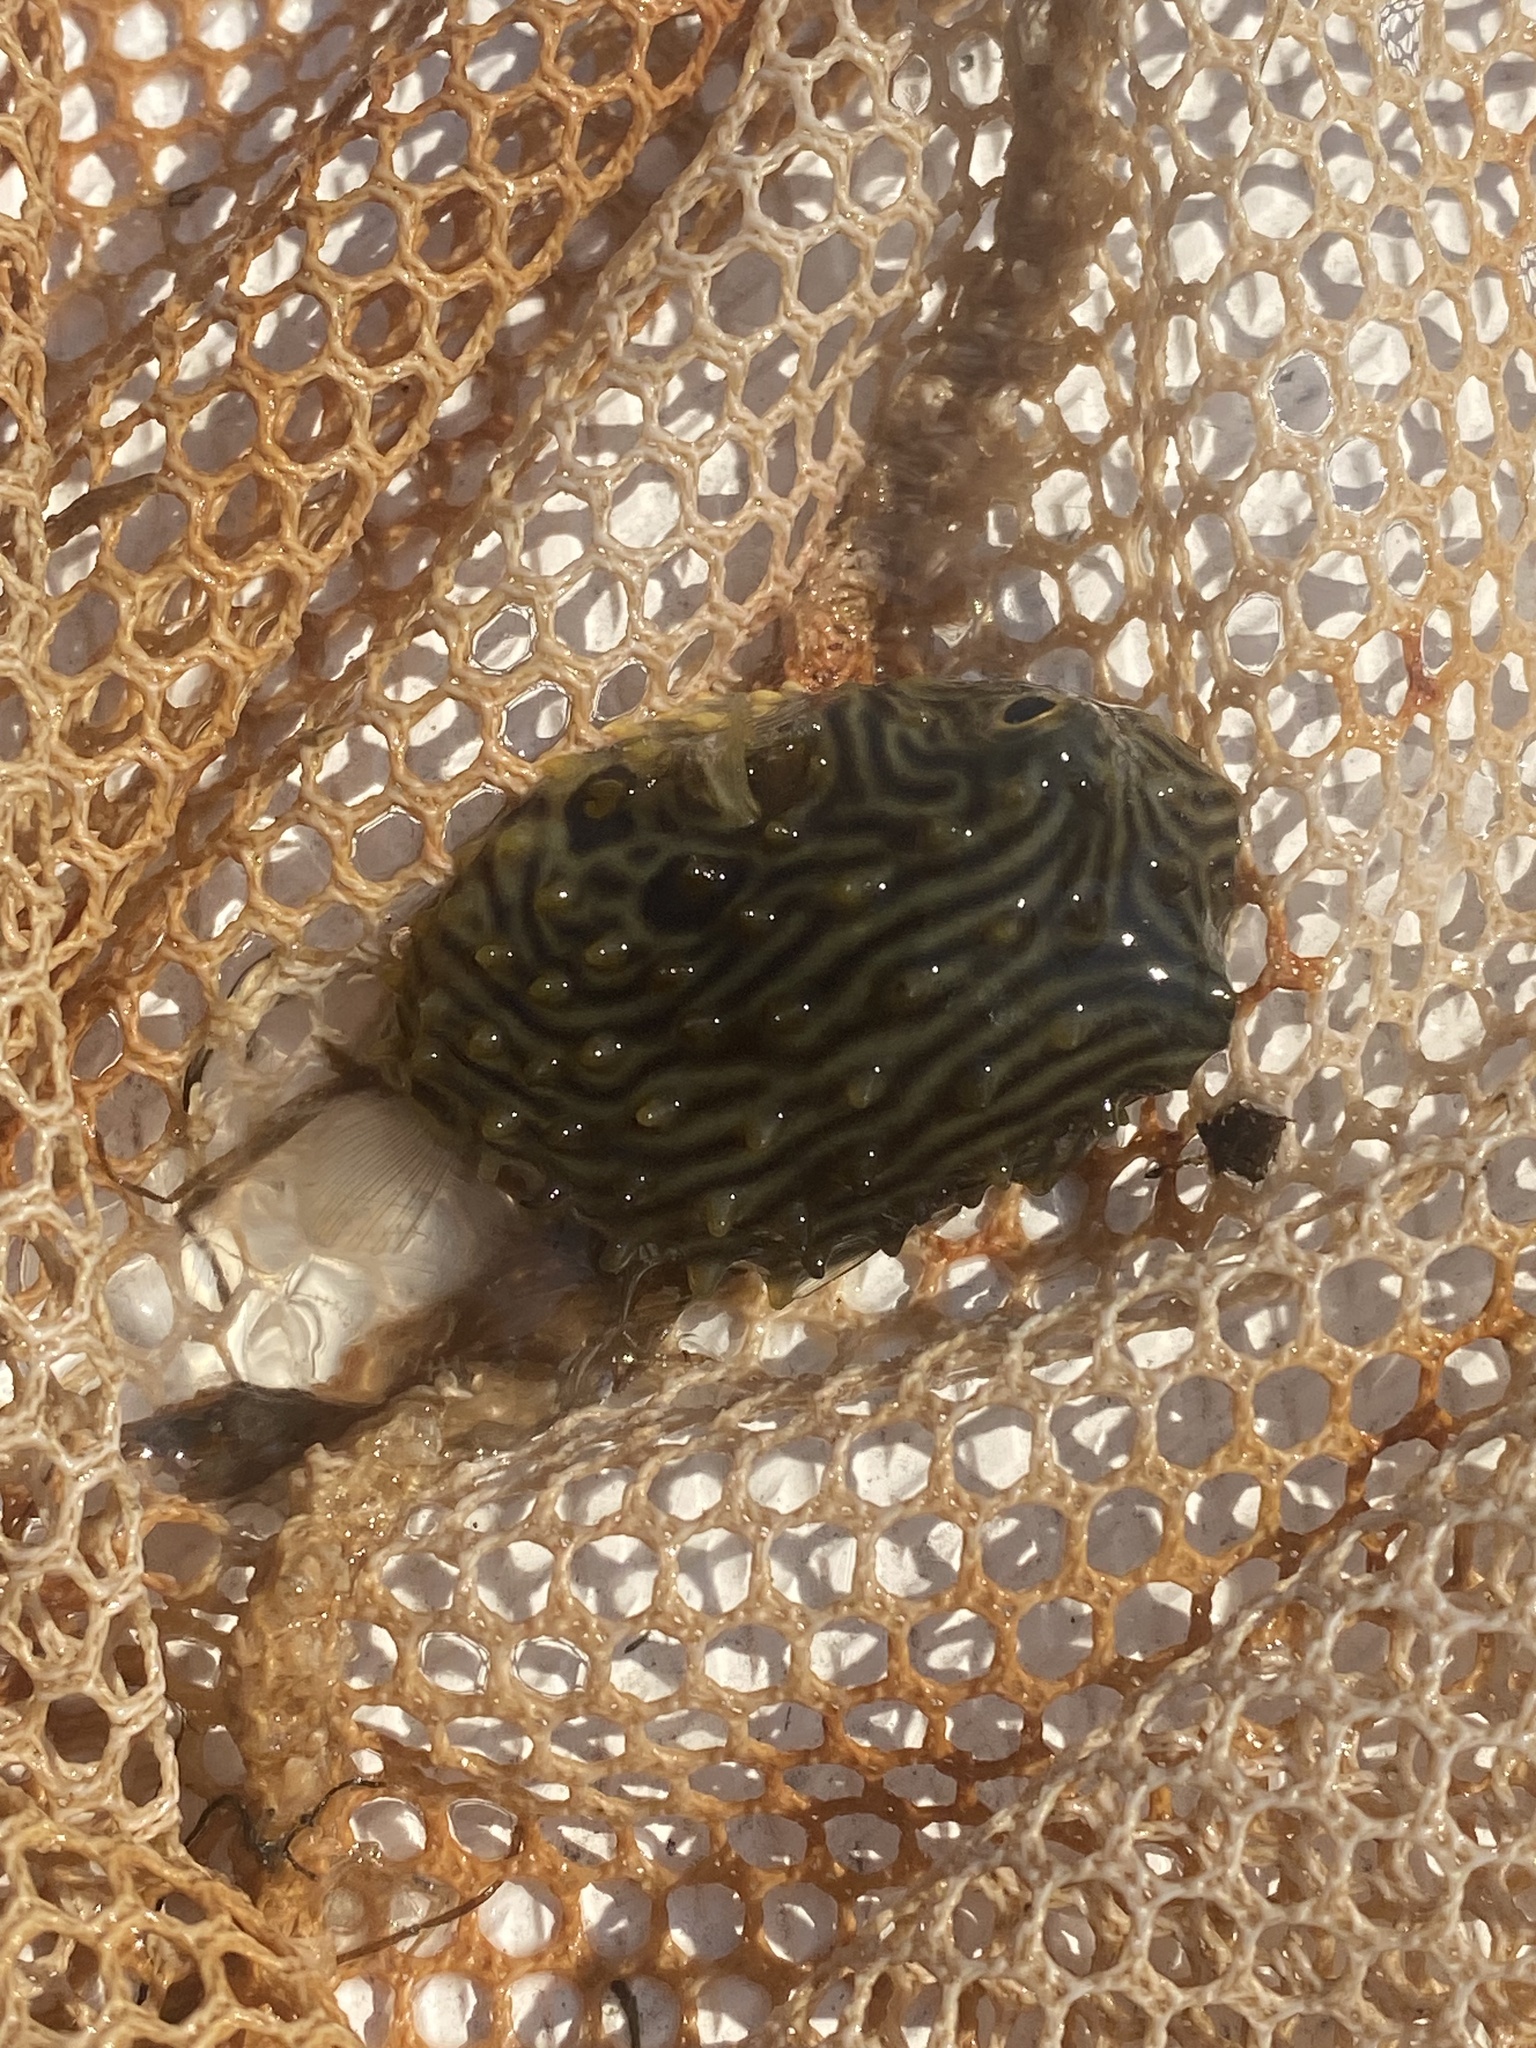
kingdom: Animalia
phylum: Chordata
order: Tetraodontiformes
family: Diodontidae
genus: Chilomycterus
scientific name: Chilomycterus schoepfii
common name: Striped burrfish
